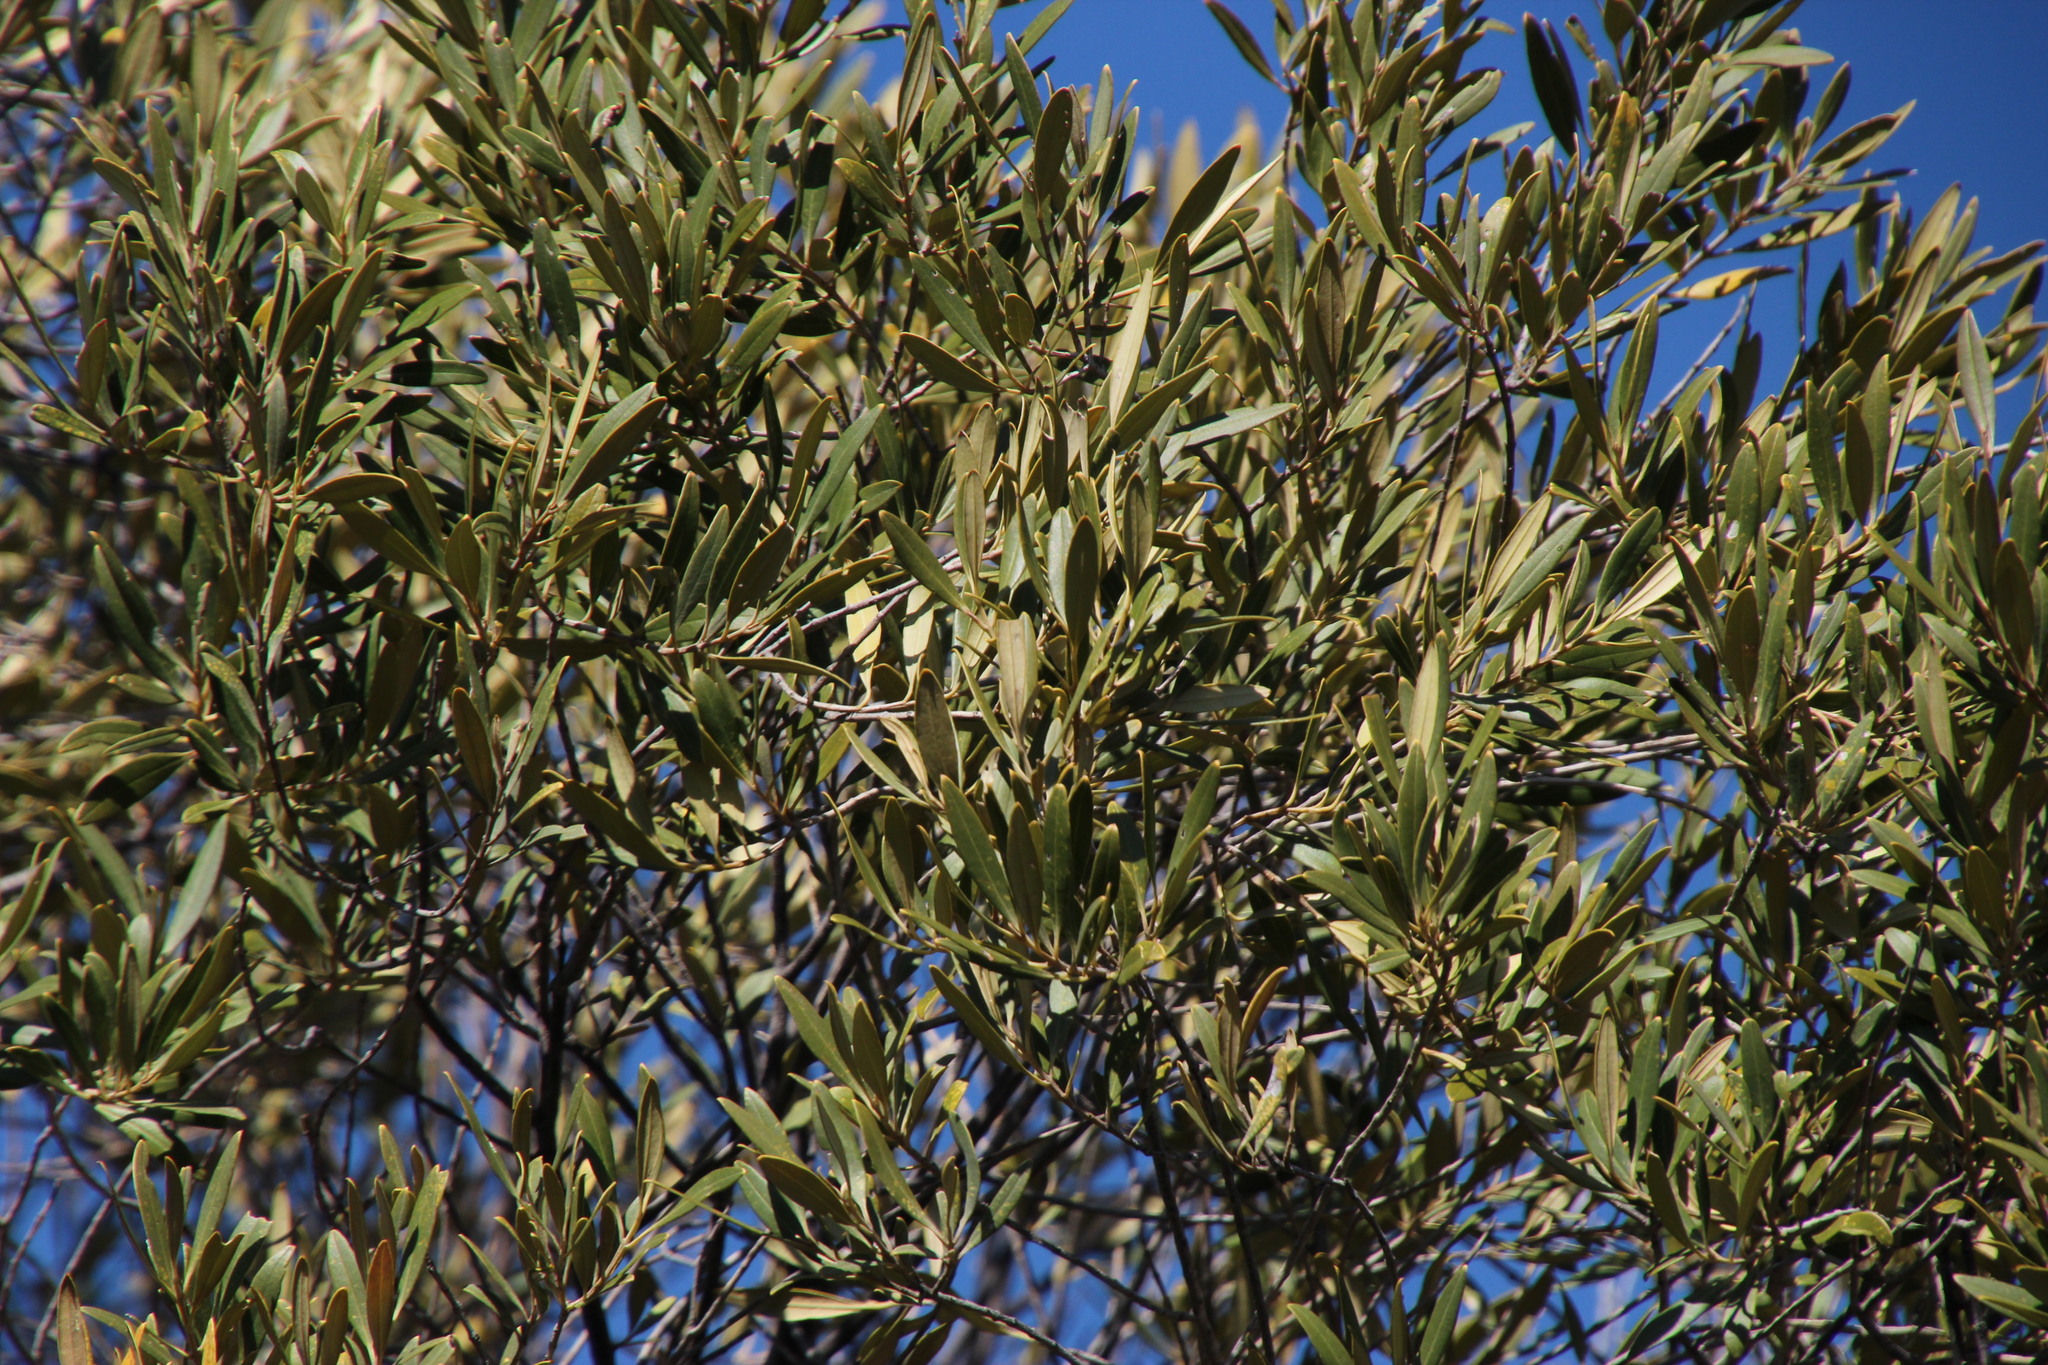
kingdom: Plantae
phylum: Tracheophyta
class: Magnoliopsida
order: Lamiales
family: Oleaceae
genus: Olea
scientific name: Olea europaea
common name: Olive
